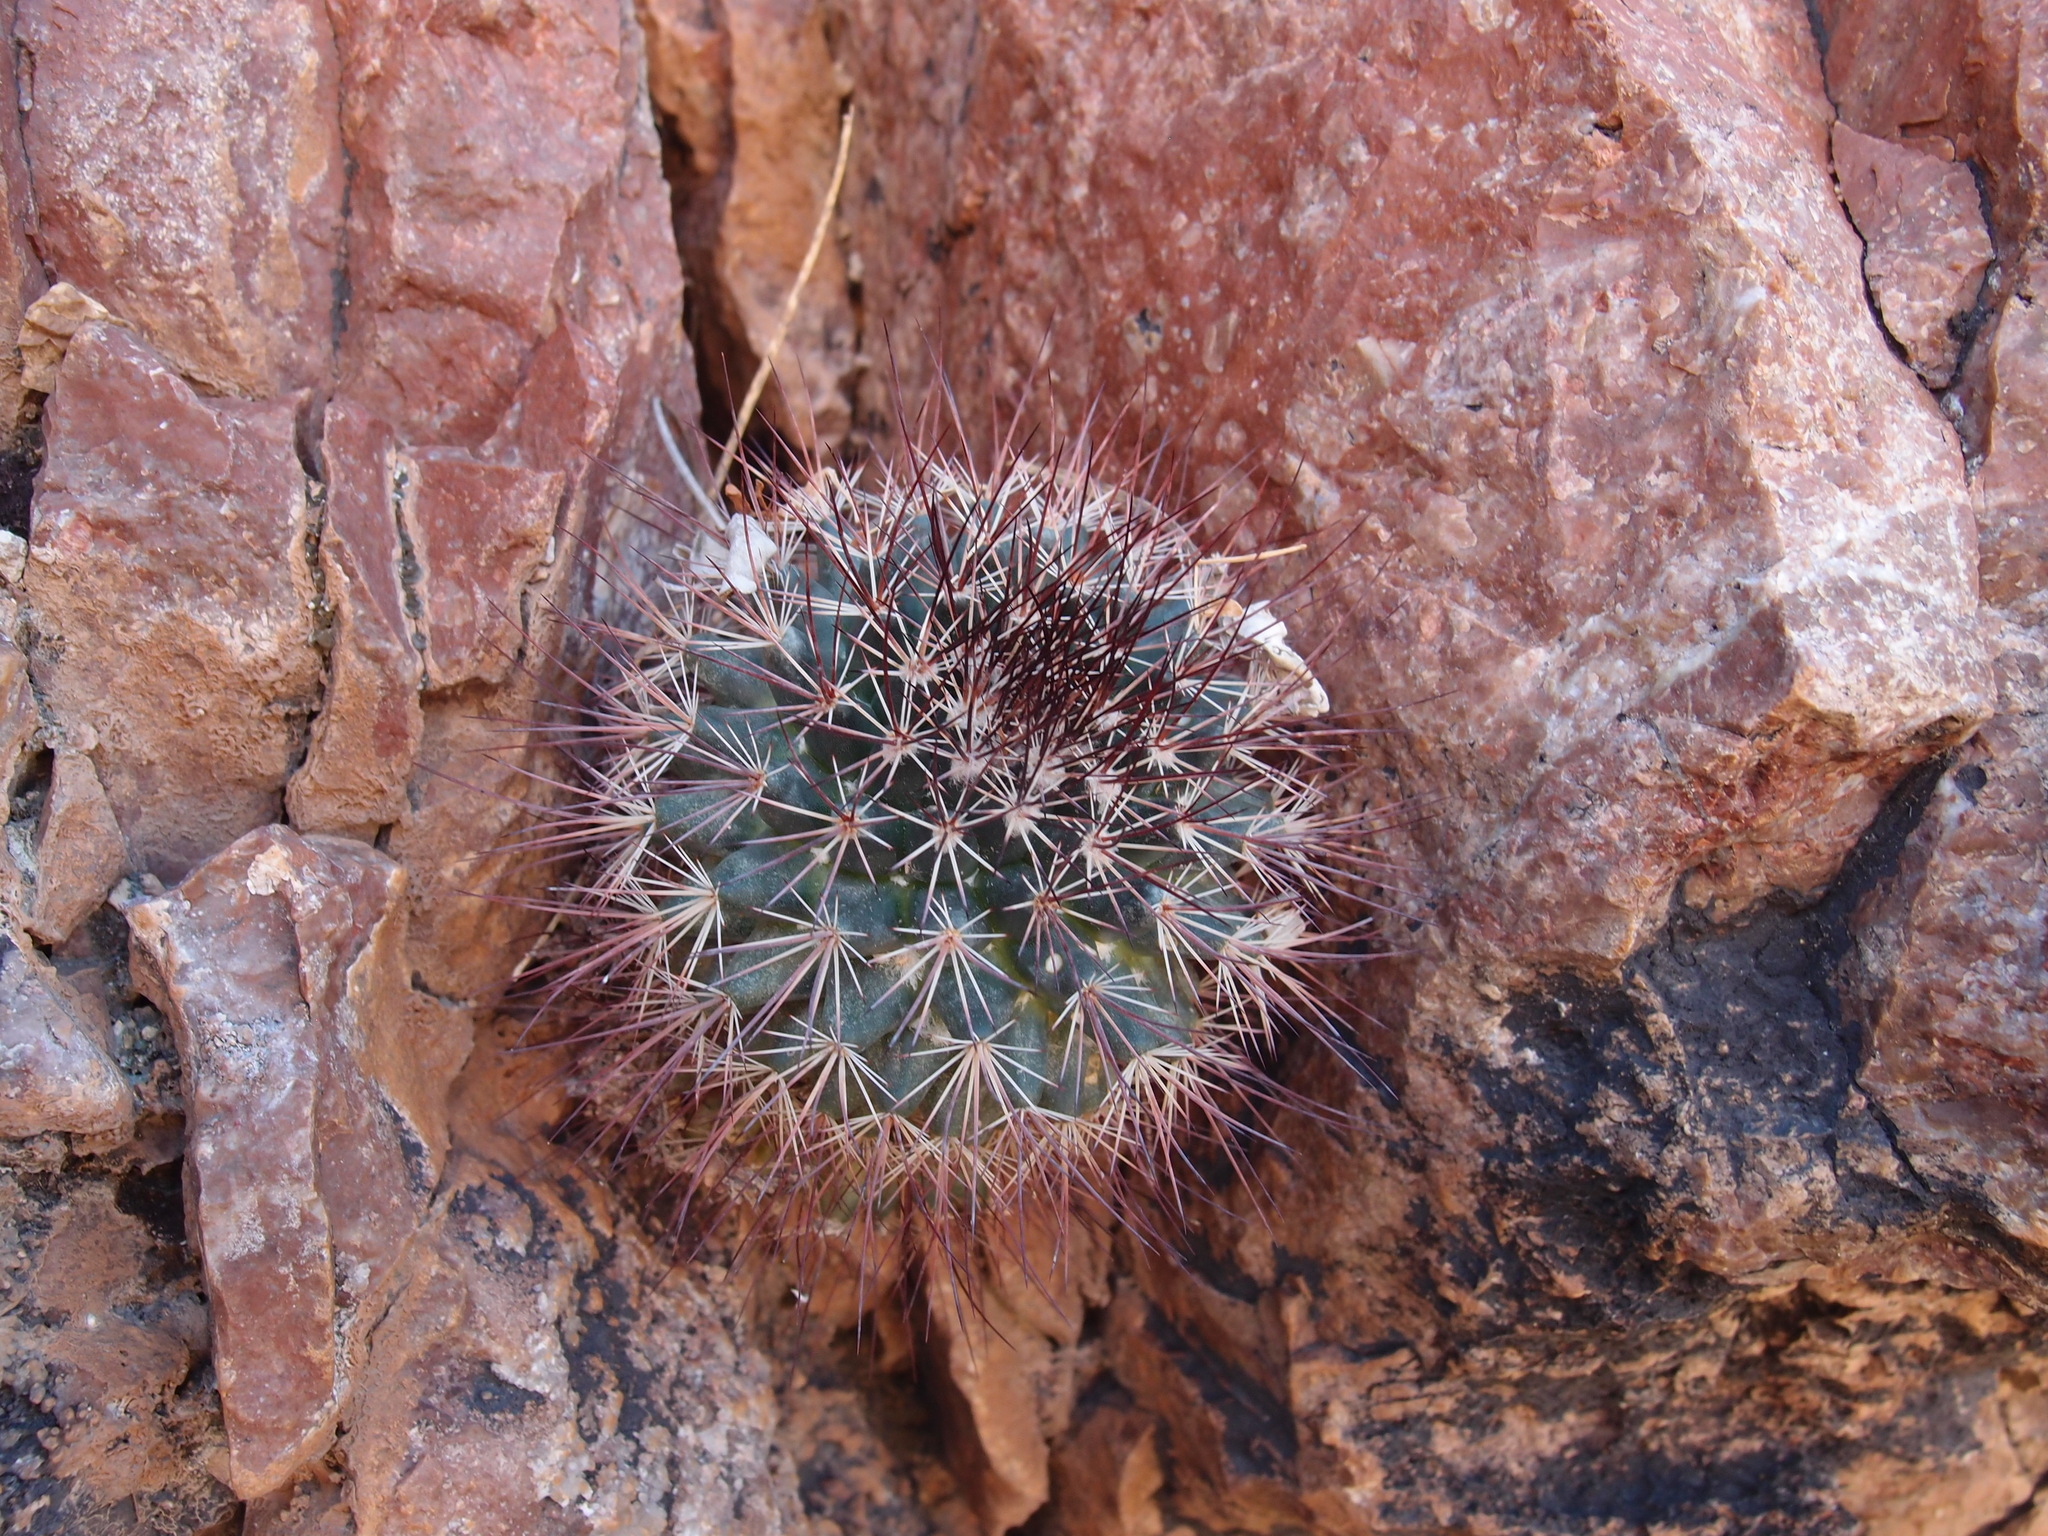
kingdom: Plantae
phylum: Tracheophyta
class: Magnoliopsida
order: Caryophyllales
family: Cactaceae
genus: Mammillaria
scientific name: Mammillaria johnstonii
